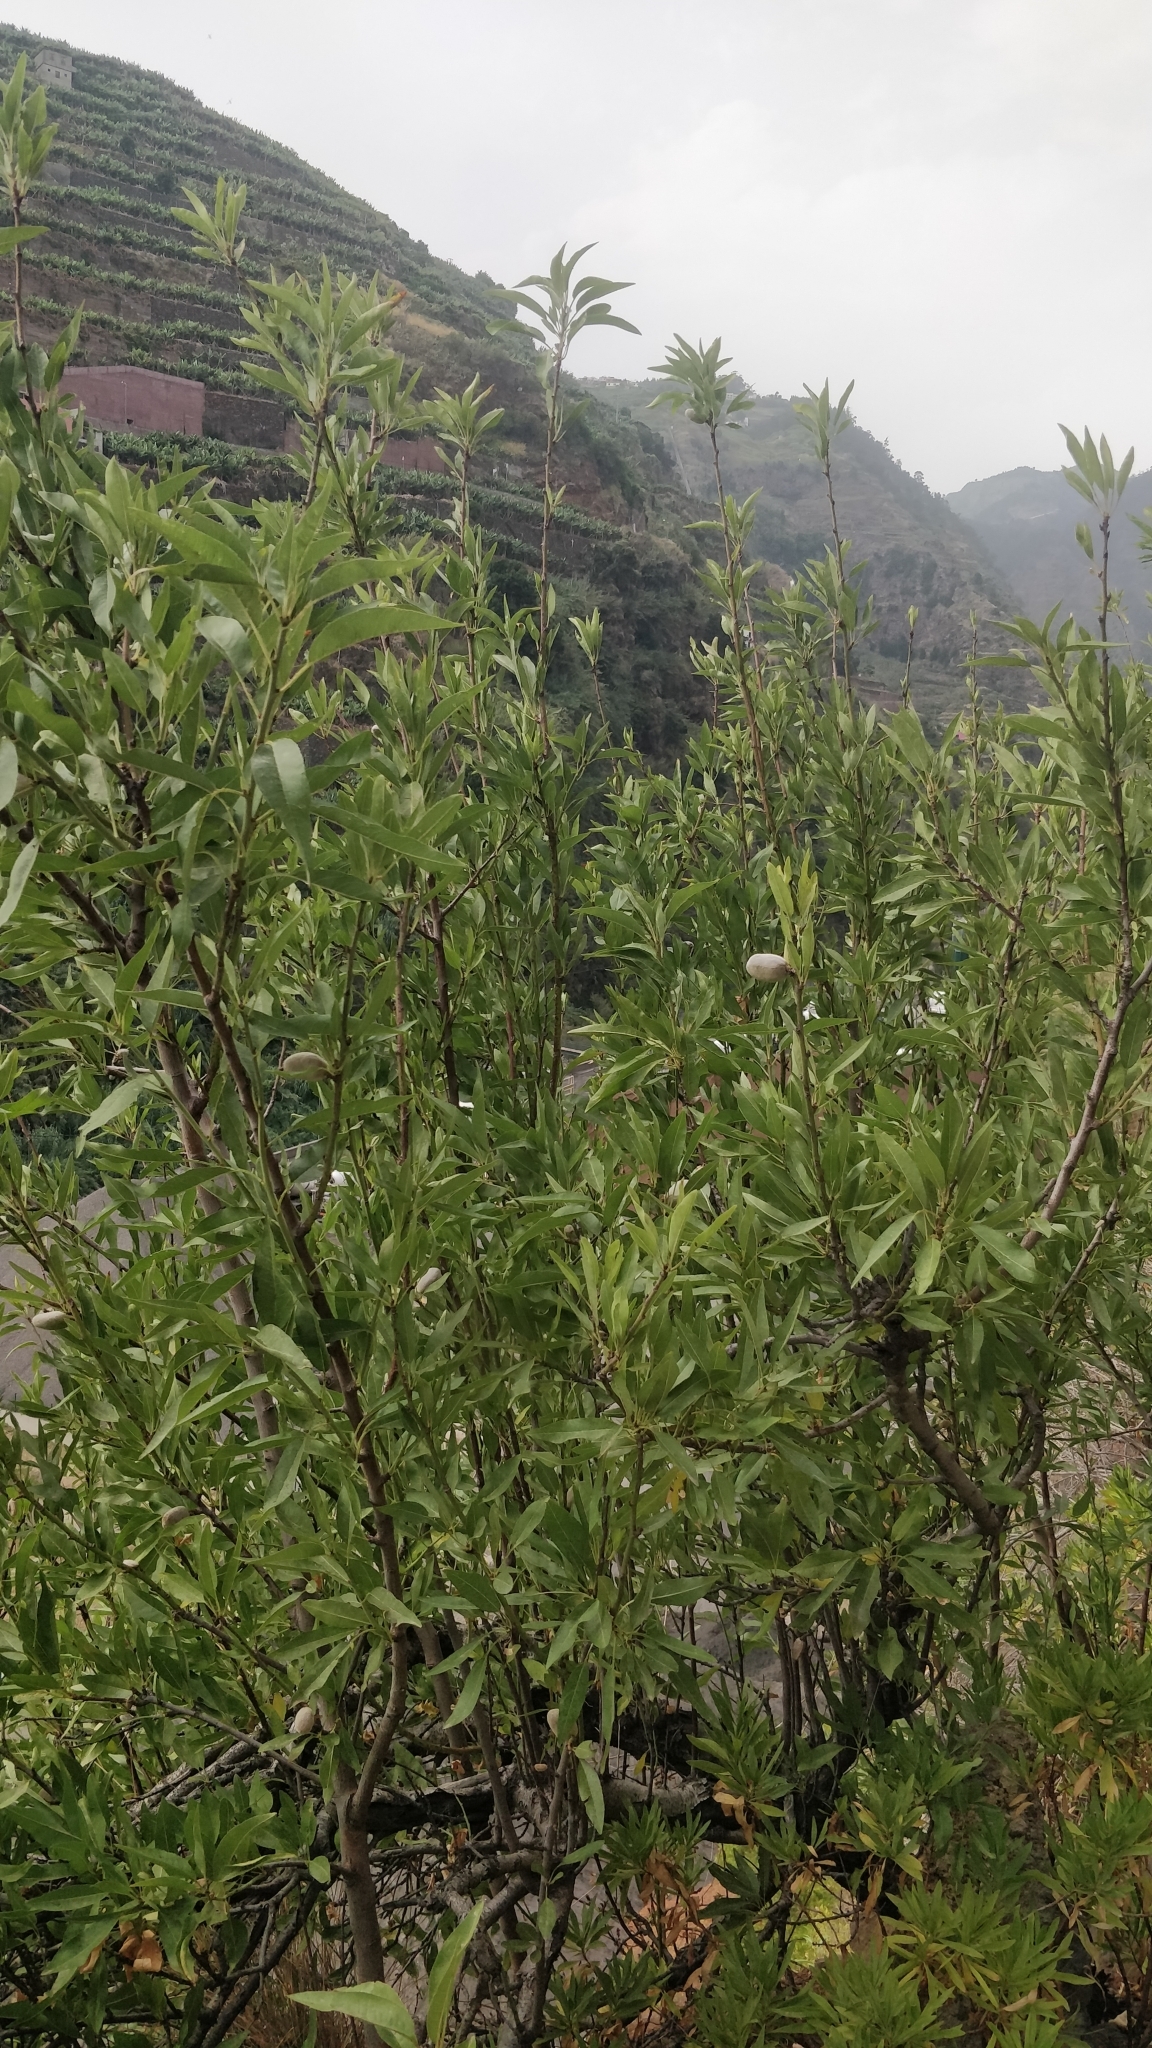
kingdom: Plantae
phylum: Tracheophyta
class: Magnoliopsida
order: Rosales
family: Rosaceae
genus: Prunus
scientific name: Prunus amygdalus
